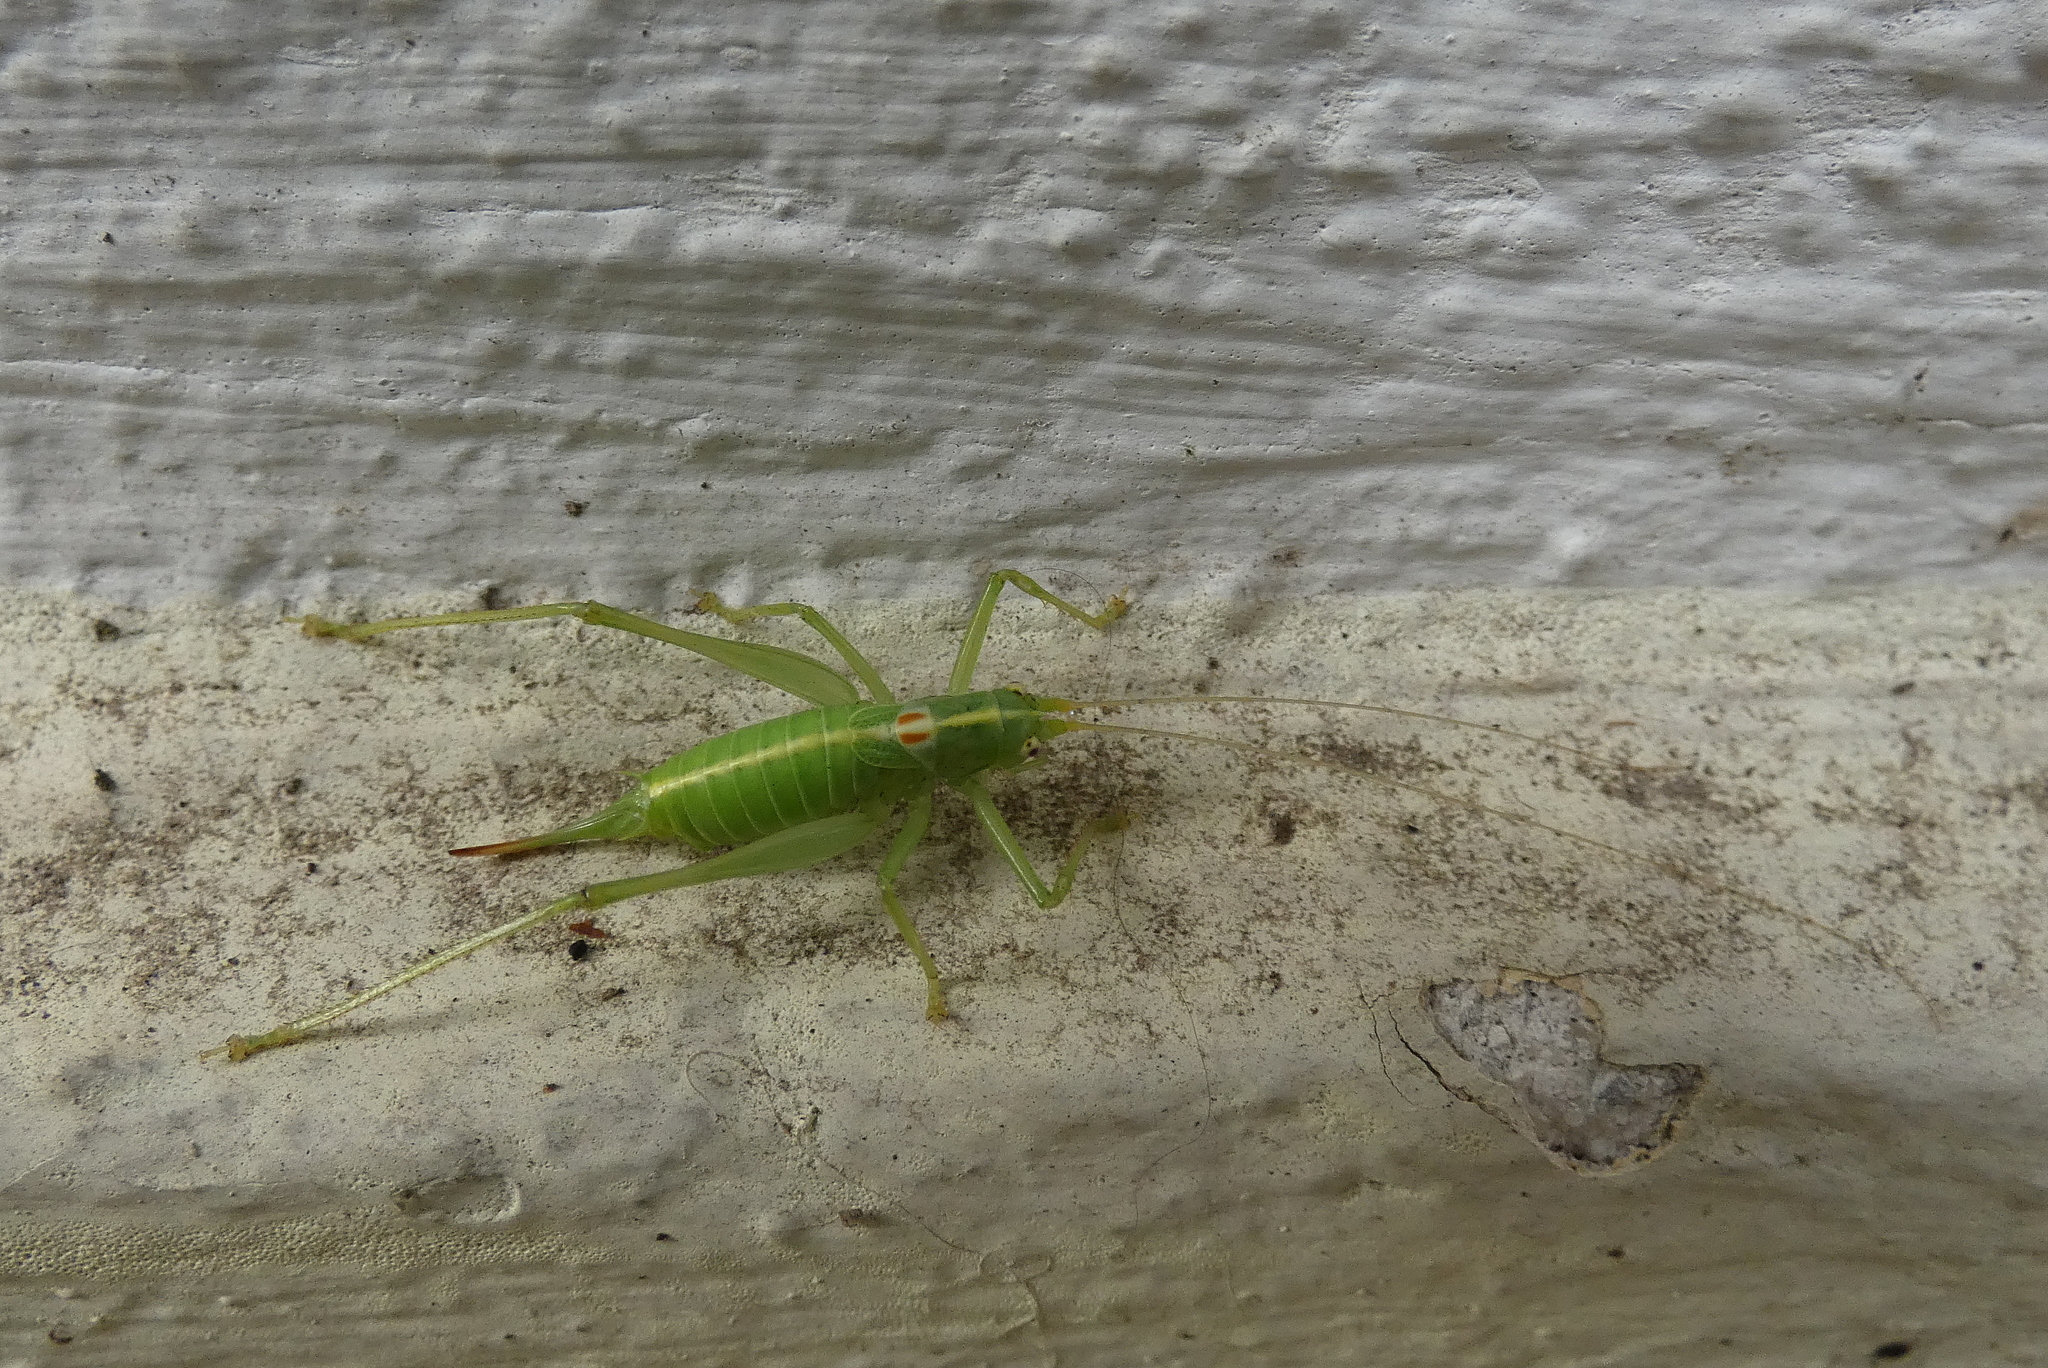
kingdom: Animalia
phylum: Arthropoda
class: Insecta
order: Orthoptera
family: Tettigoniidae
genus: Meconema
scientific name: Meconema meridionale
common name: Southern oak bush-cricket
